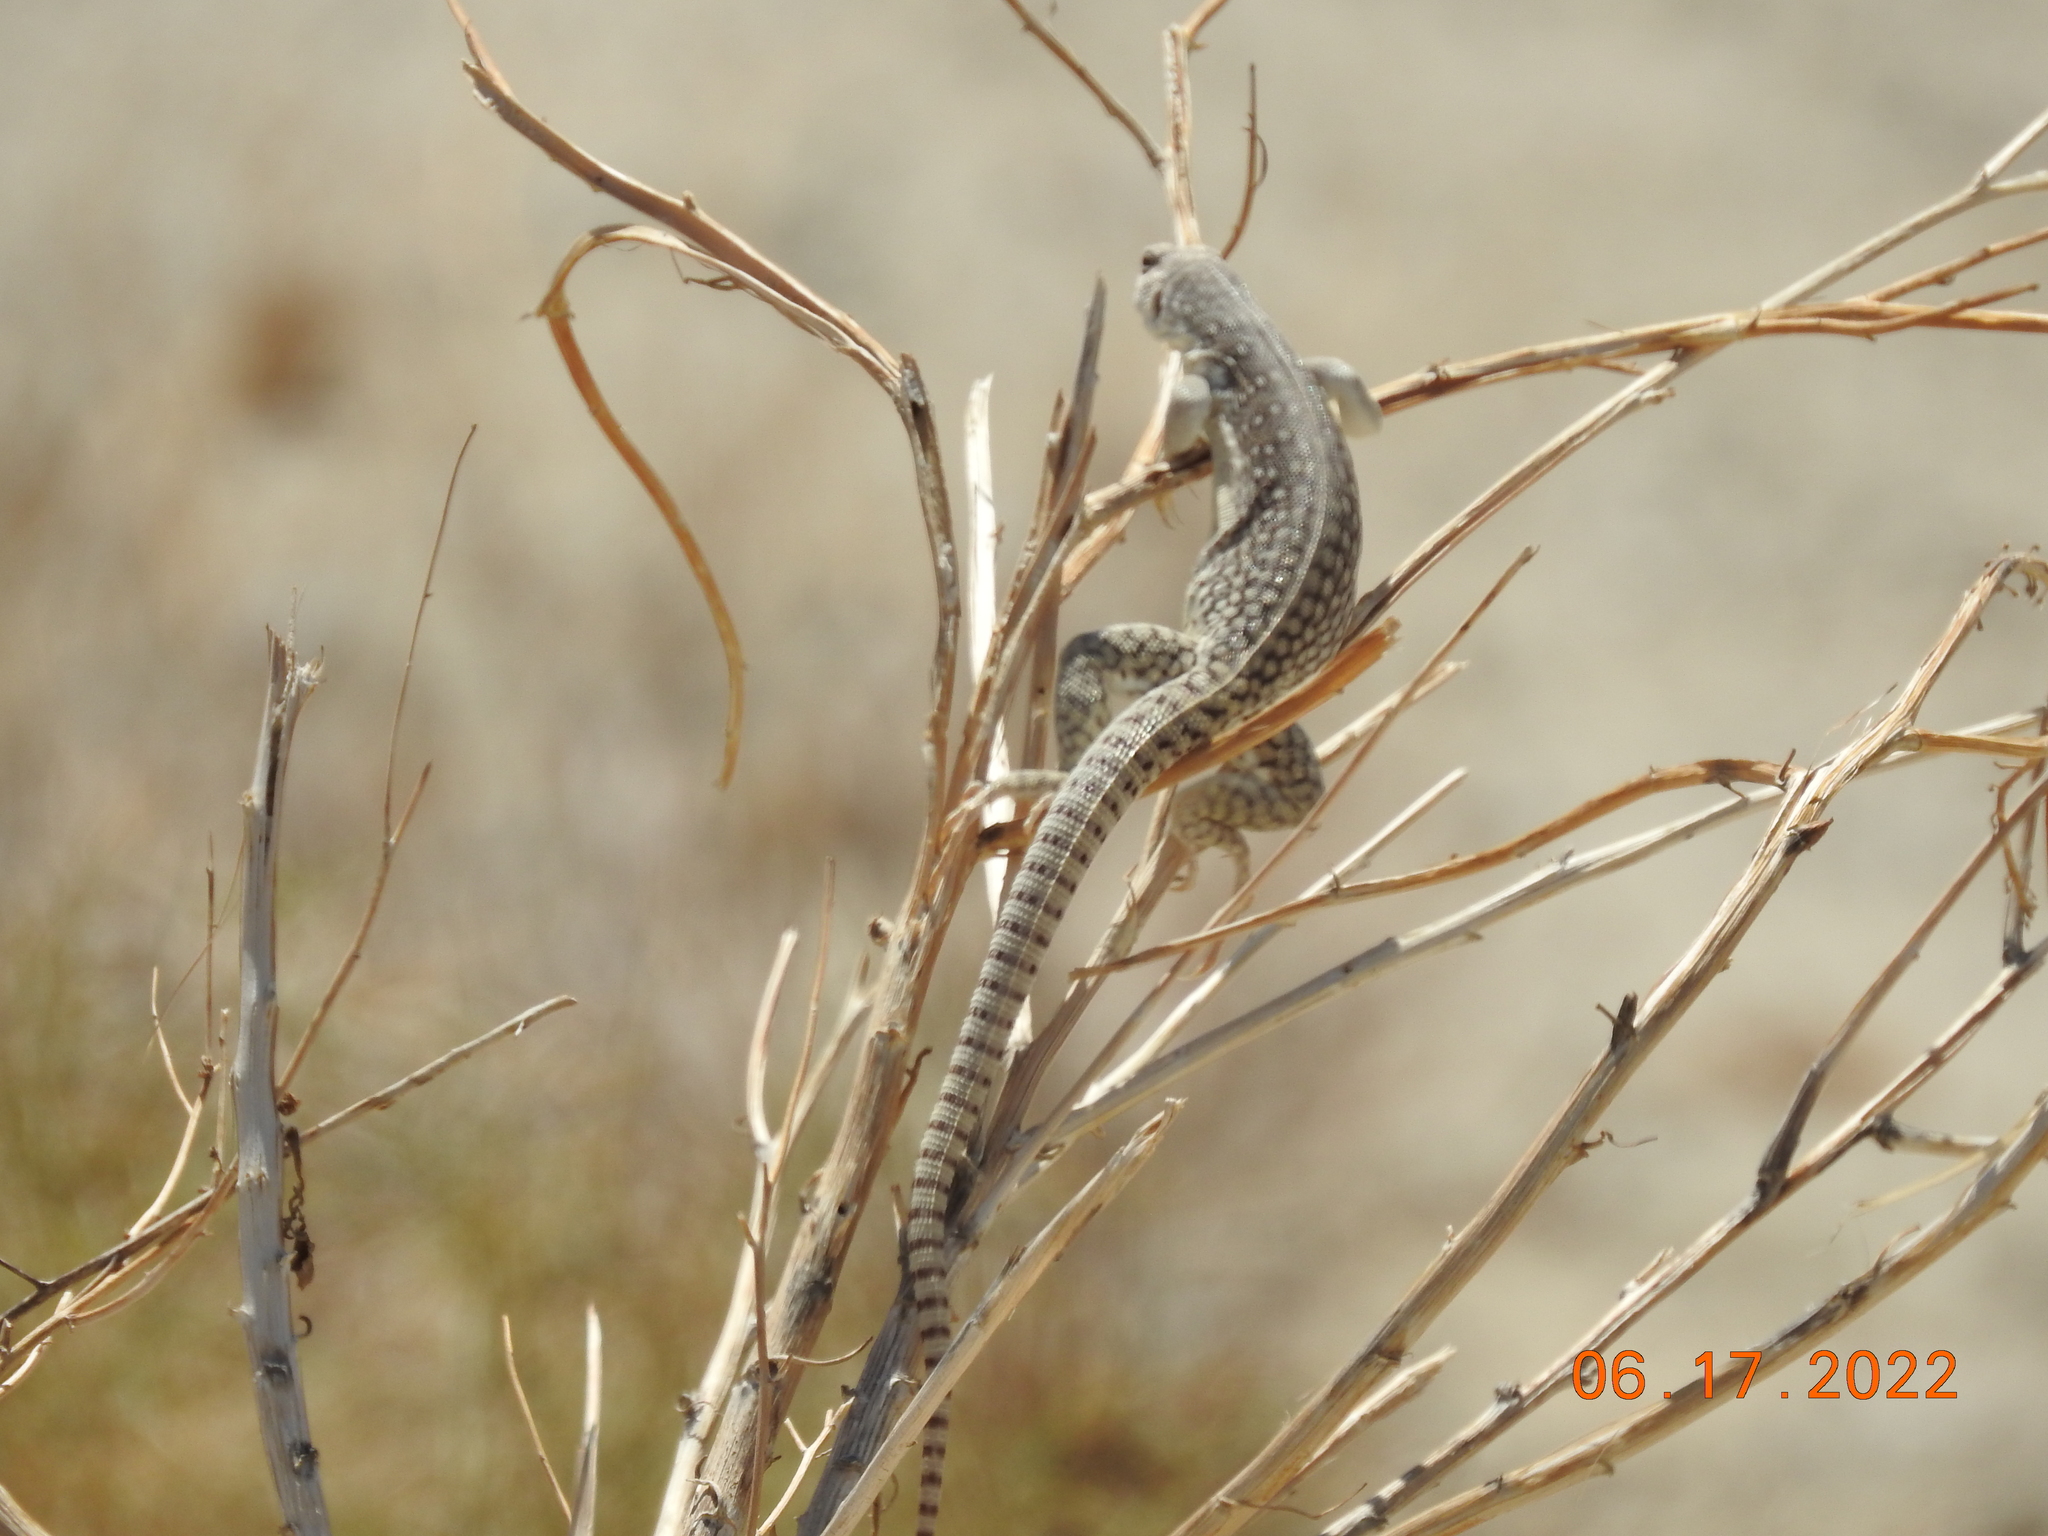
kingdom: Animalia
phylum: Chordata
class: Squamata
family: Iguanidae
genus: Dipsosaurus
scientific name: Dipsosaurus dorsalis
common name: Desert iguana
